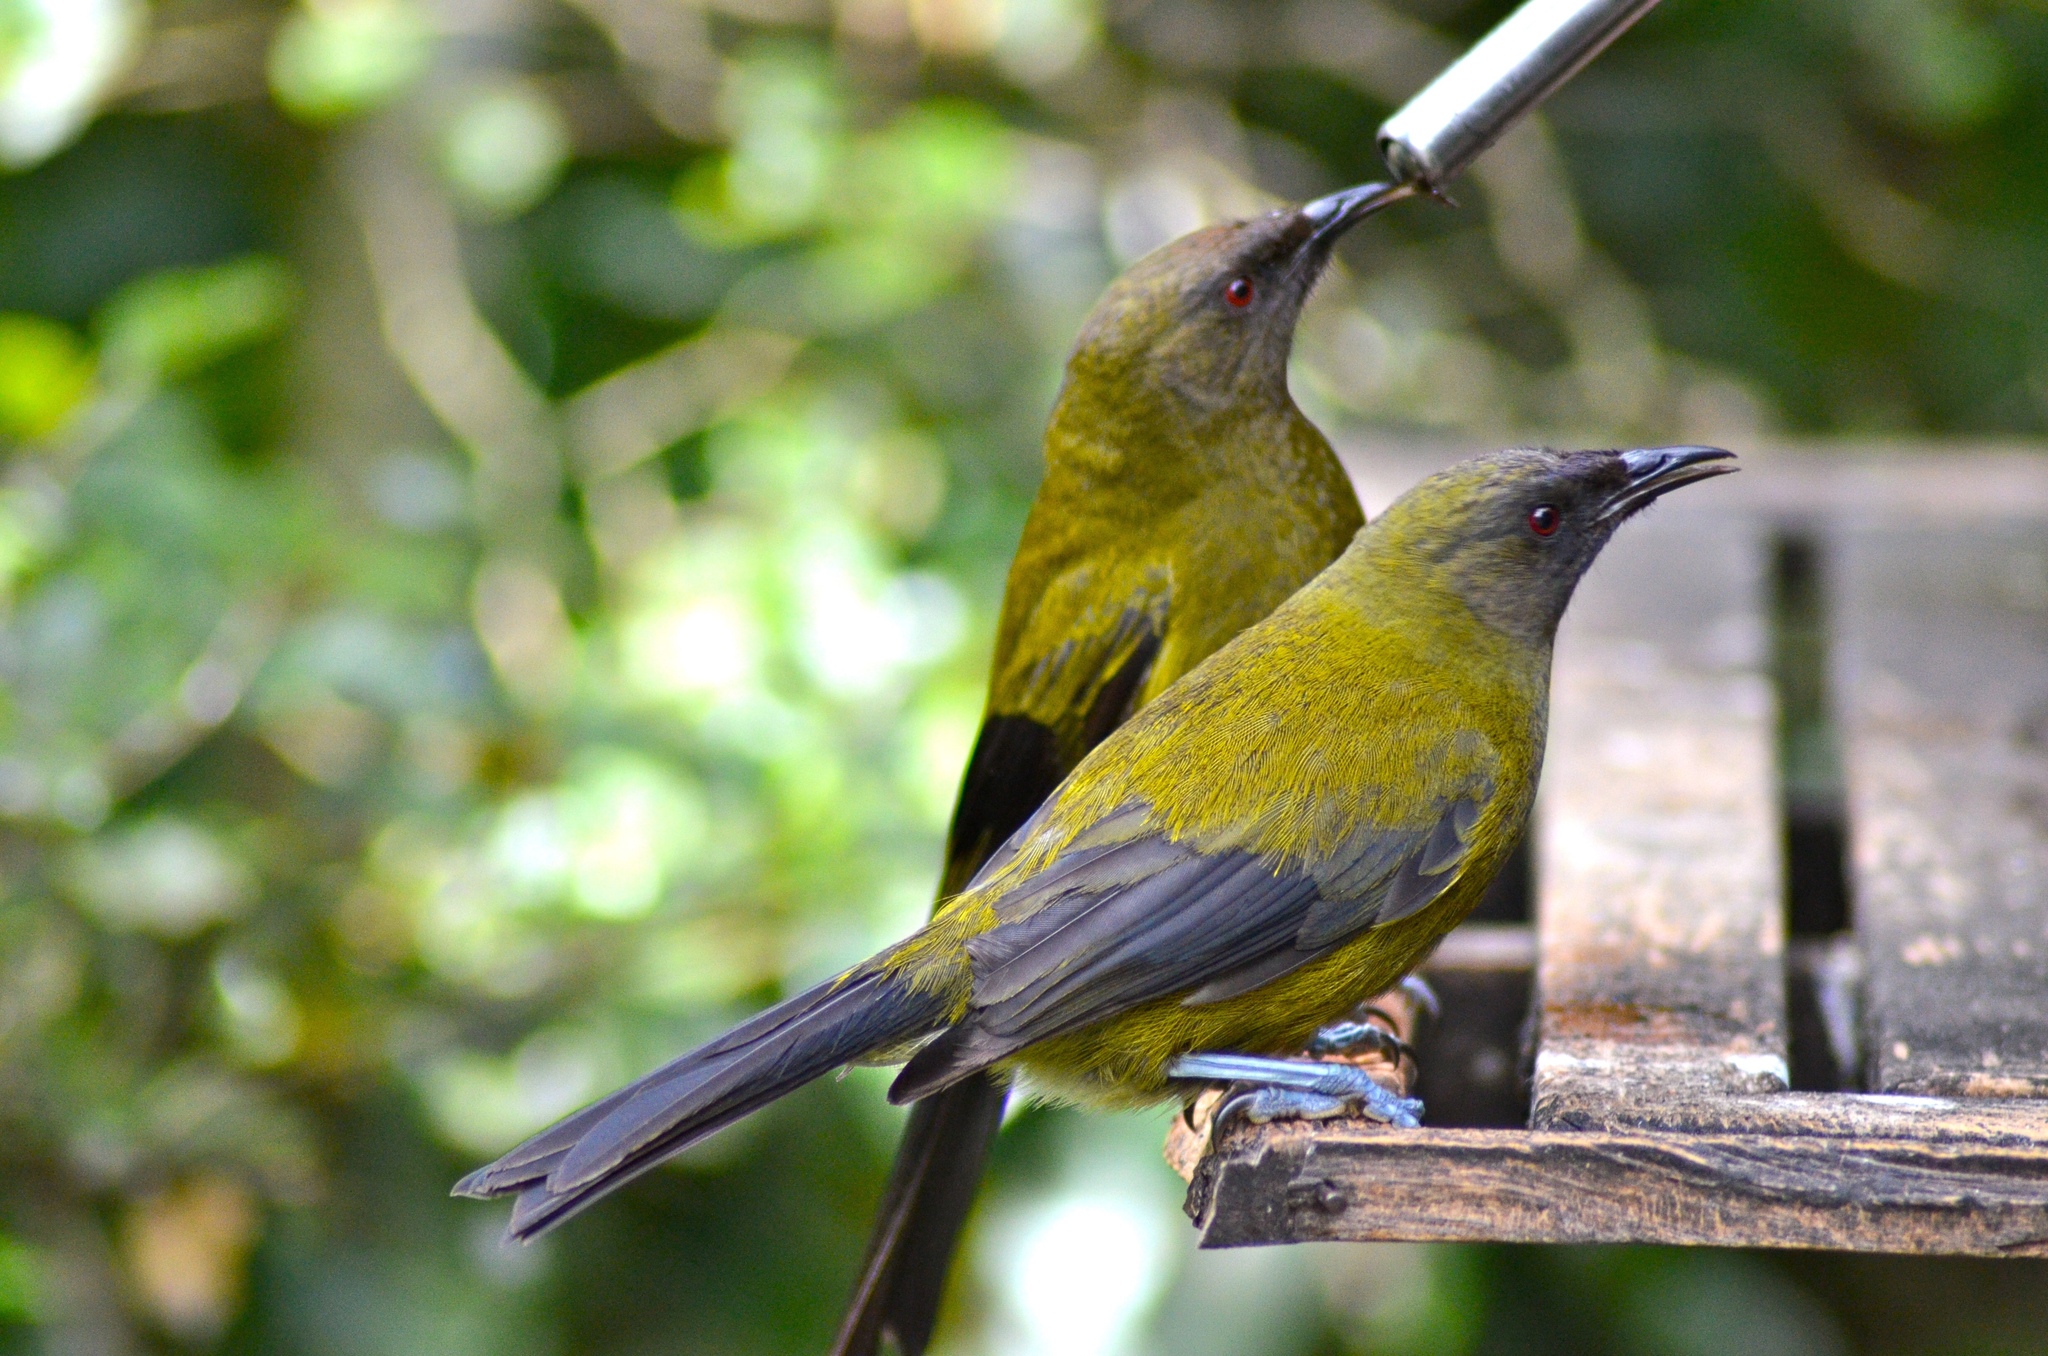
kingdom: Animalia
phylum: Chordata
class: Aves
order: Passeriformes
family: Meliphagidae
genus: Anthornis
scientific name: Anthornis melanura
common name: New zealand bellbird
